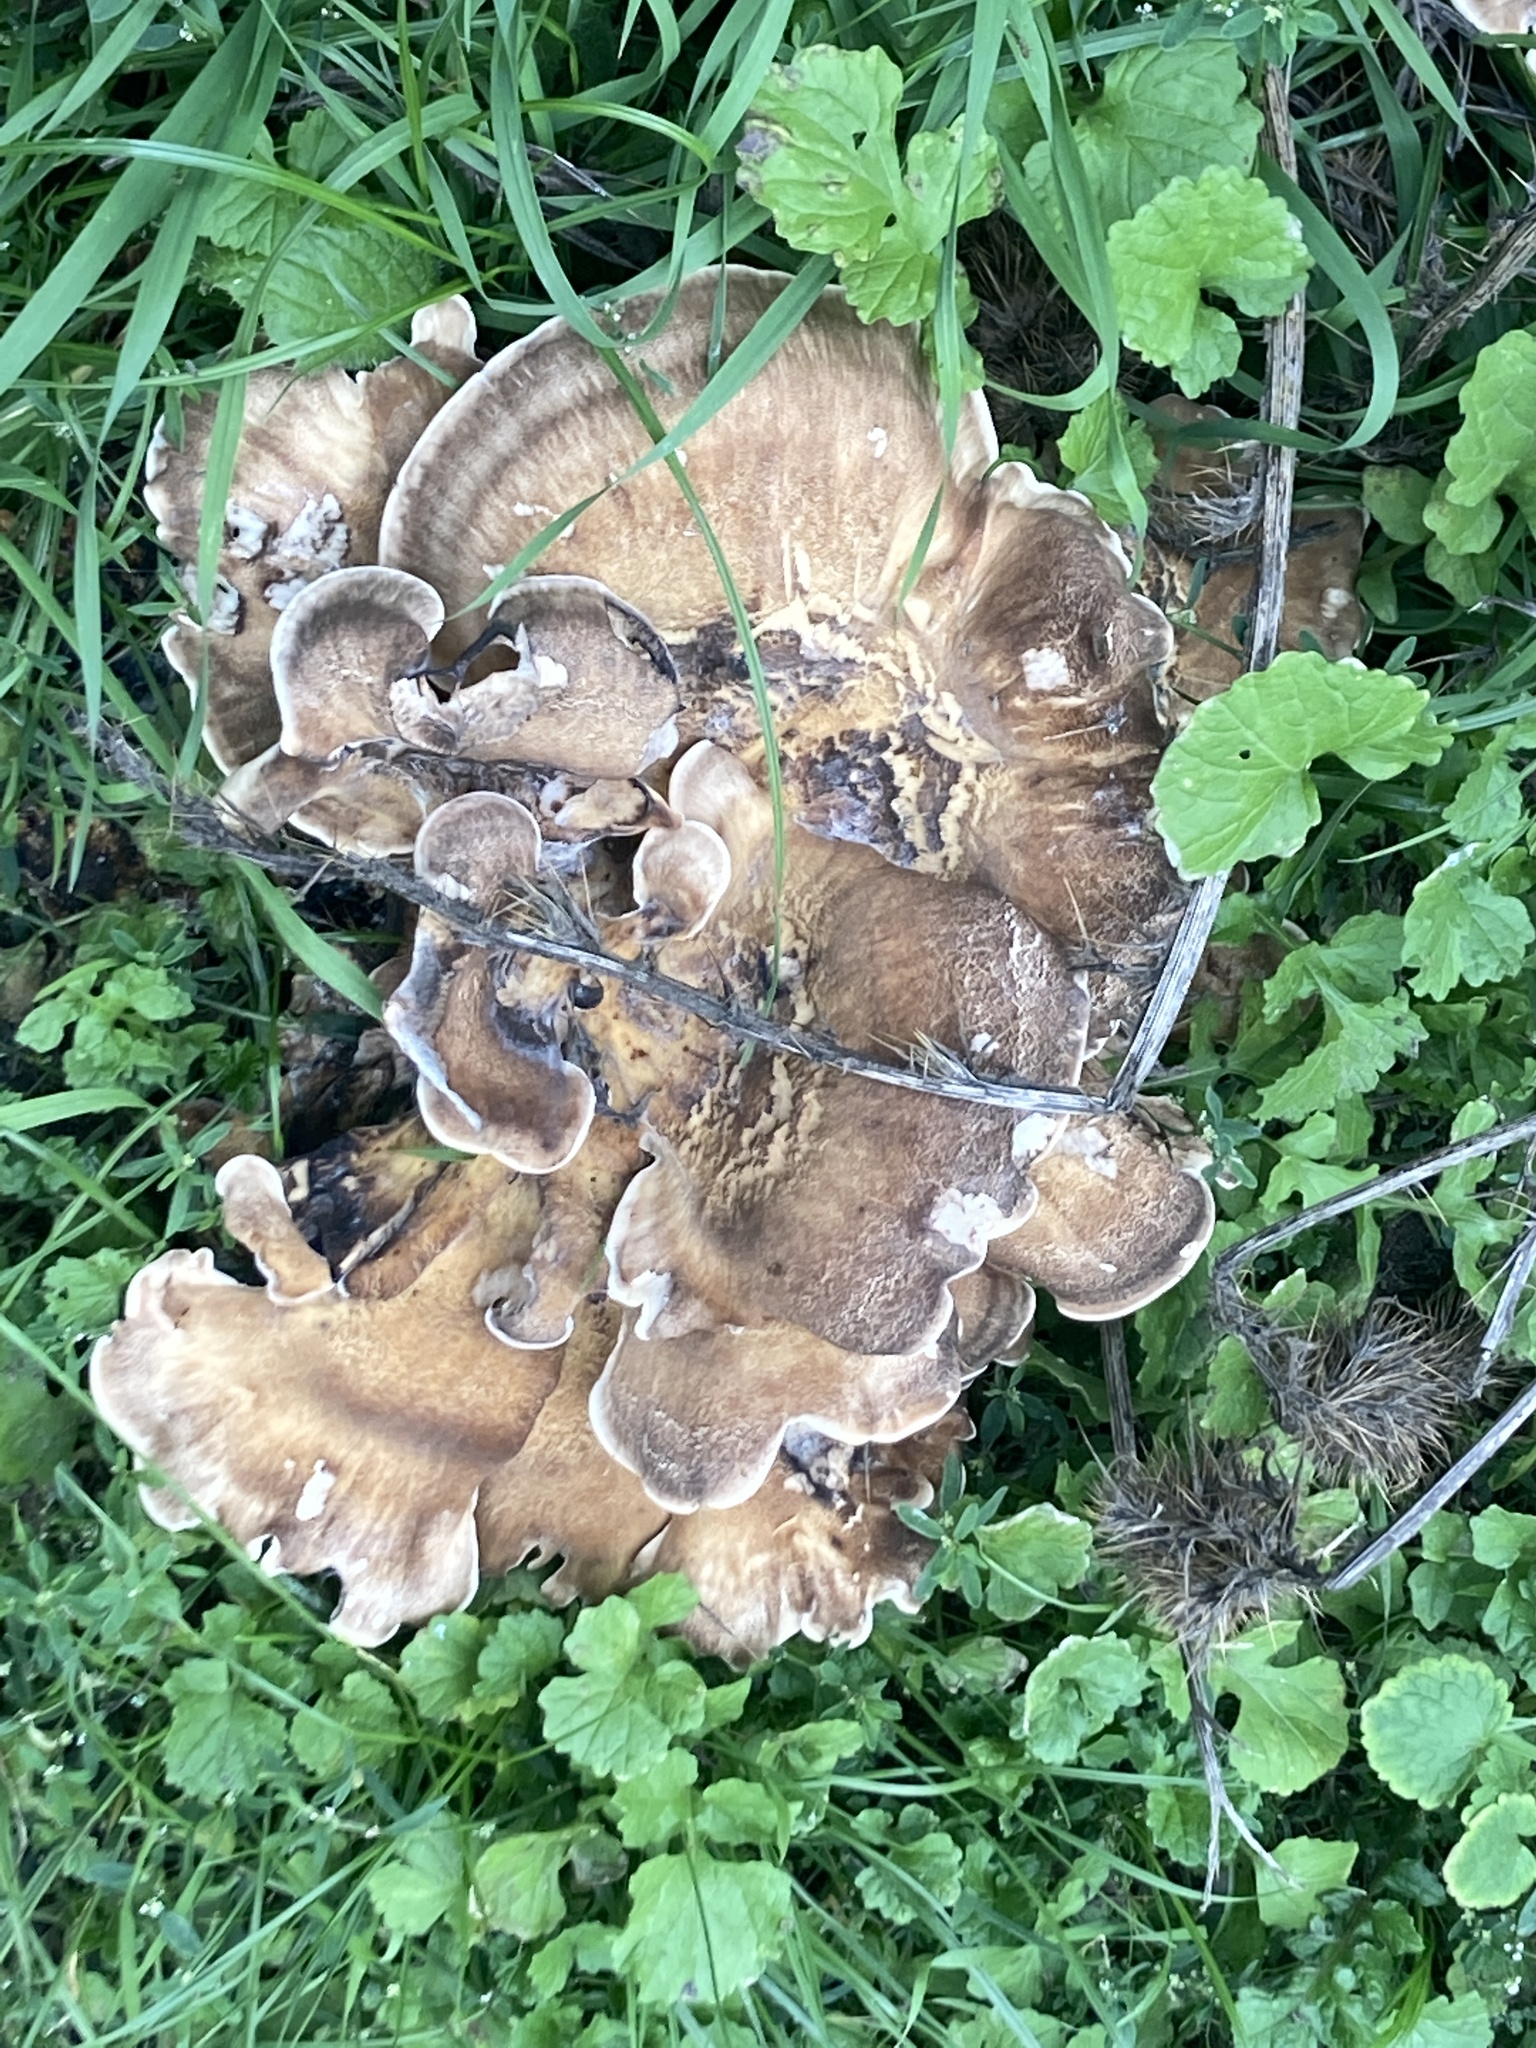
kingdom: Fungi
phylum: Basidiomycota
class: Agaricomycetes
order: Polyporales
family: Meripilaceae
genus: Meripilus
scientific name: Meripilus giganteus
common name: Giant polypore
